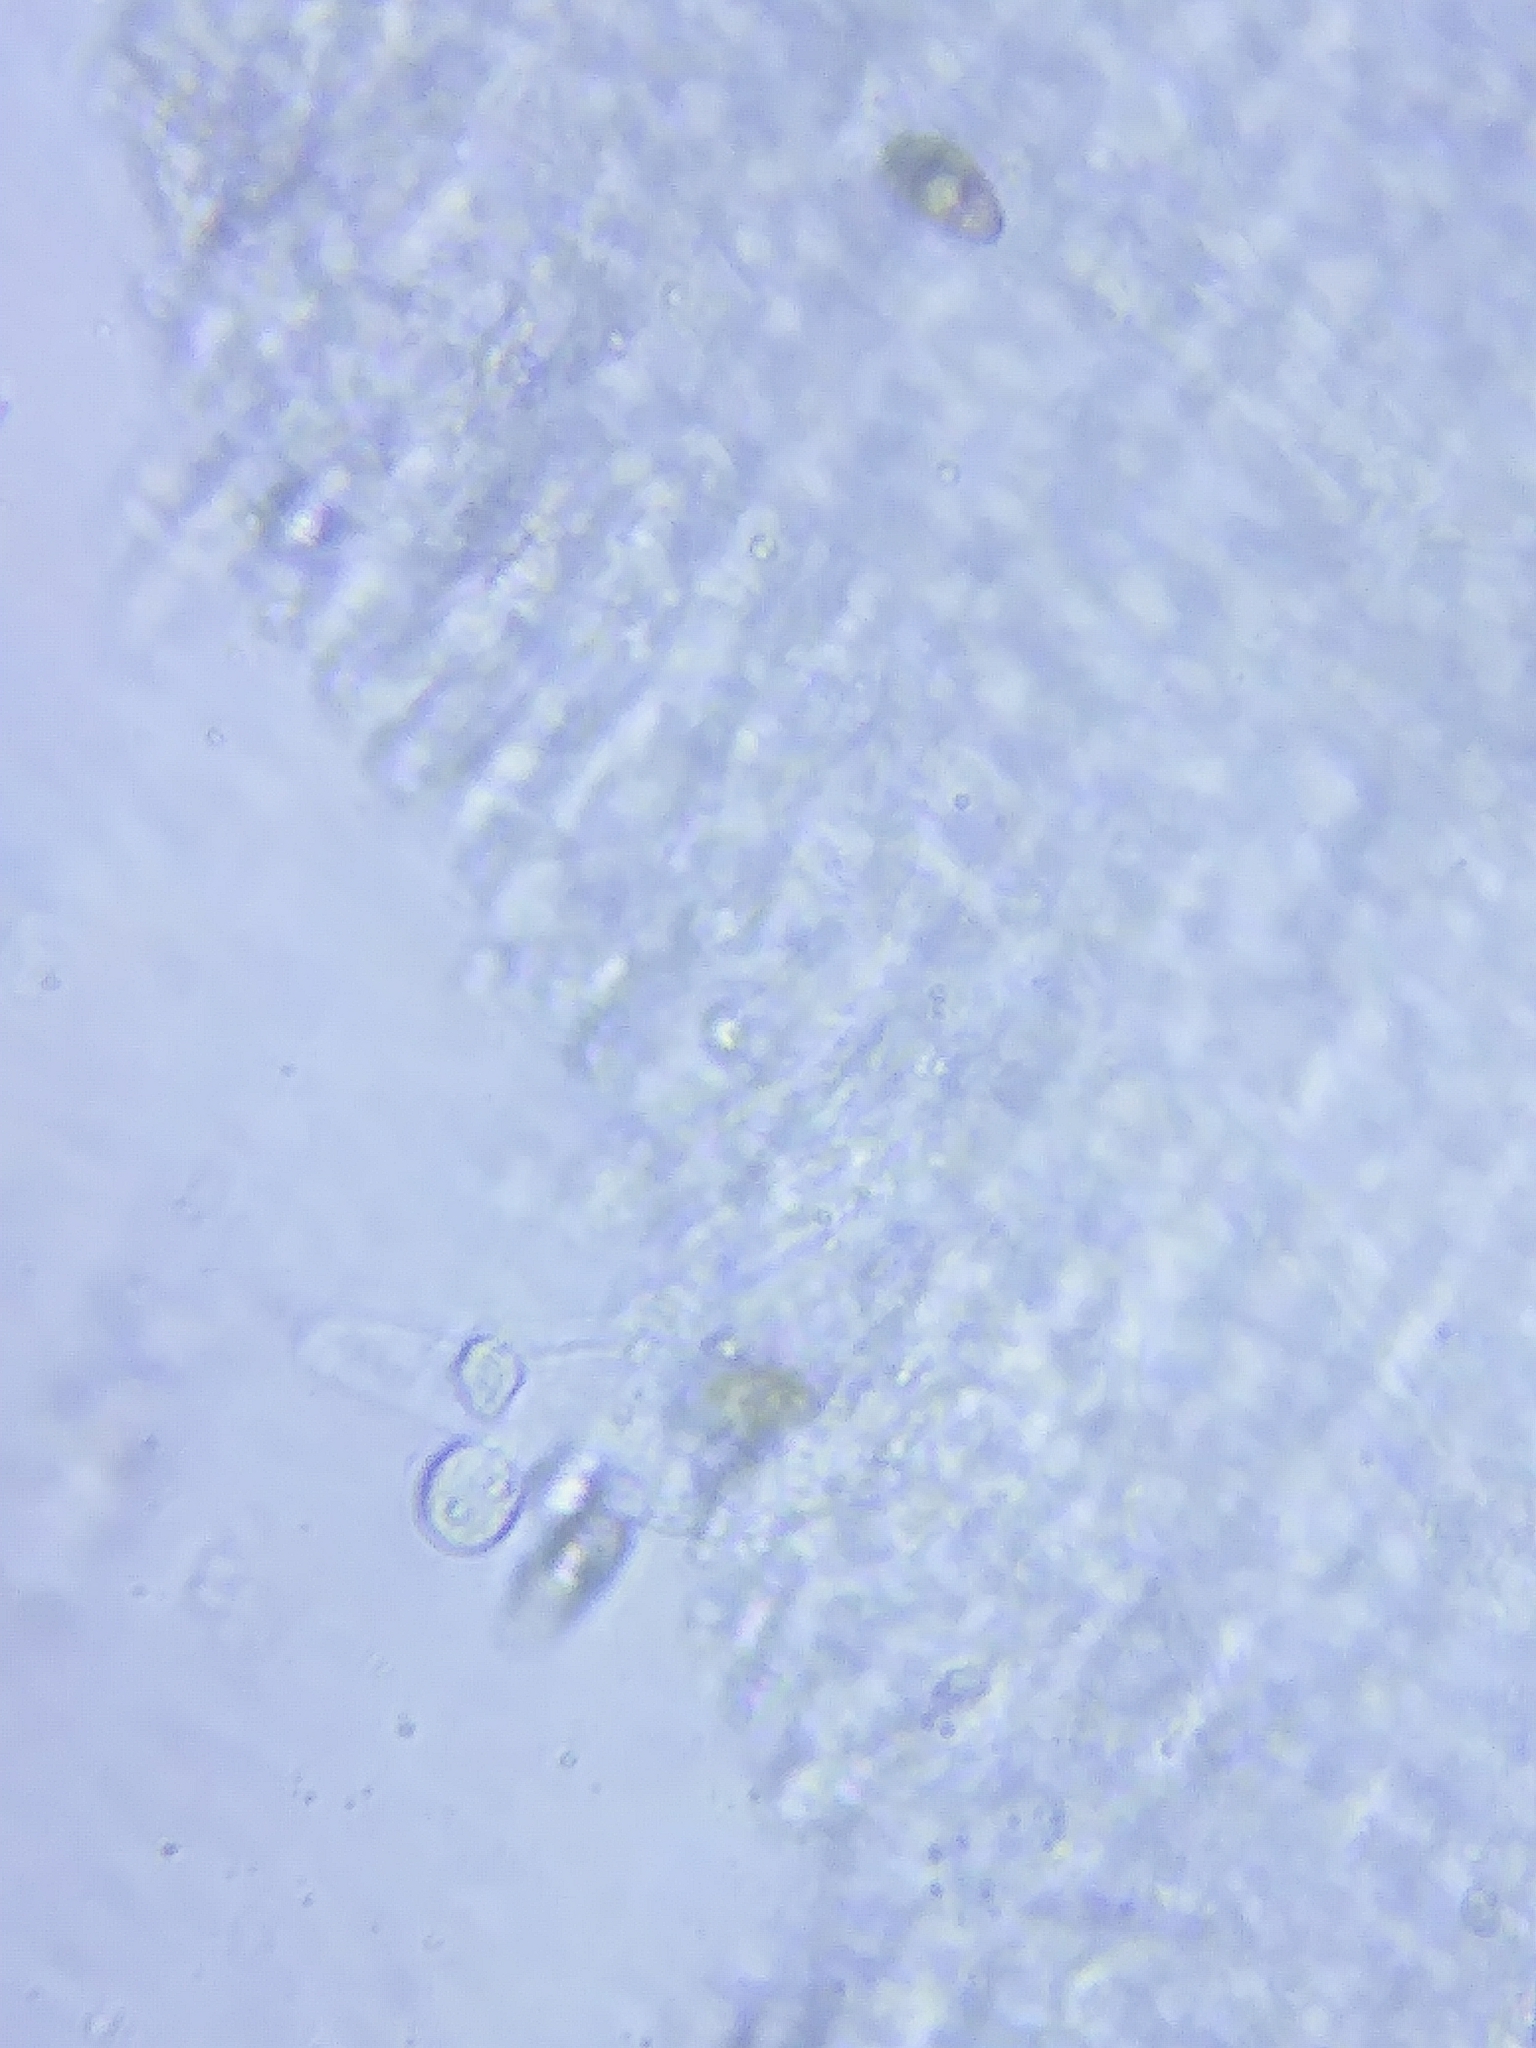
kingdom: Fungi
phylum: Basidiomycota
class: Agaricomycetes
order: Agaricales
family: Tubariaceae
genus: Cyclocybe
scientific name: Cyclocybe erebia
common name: Dark fieldcap
